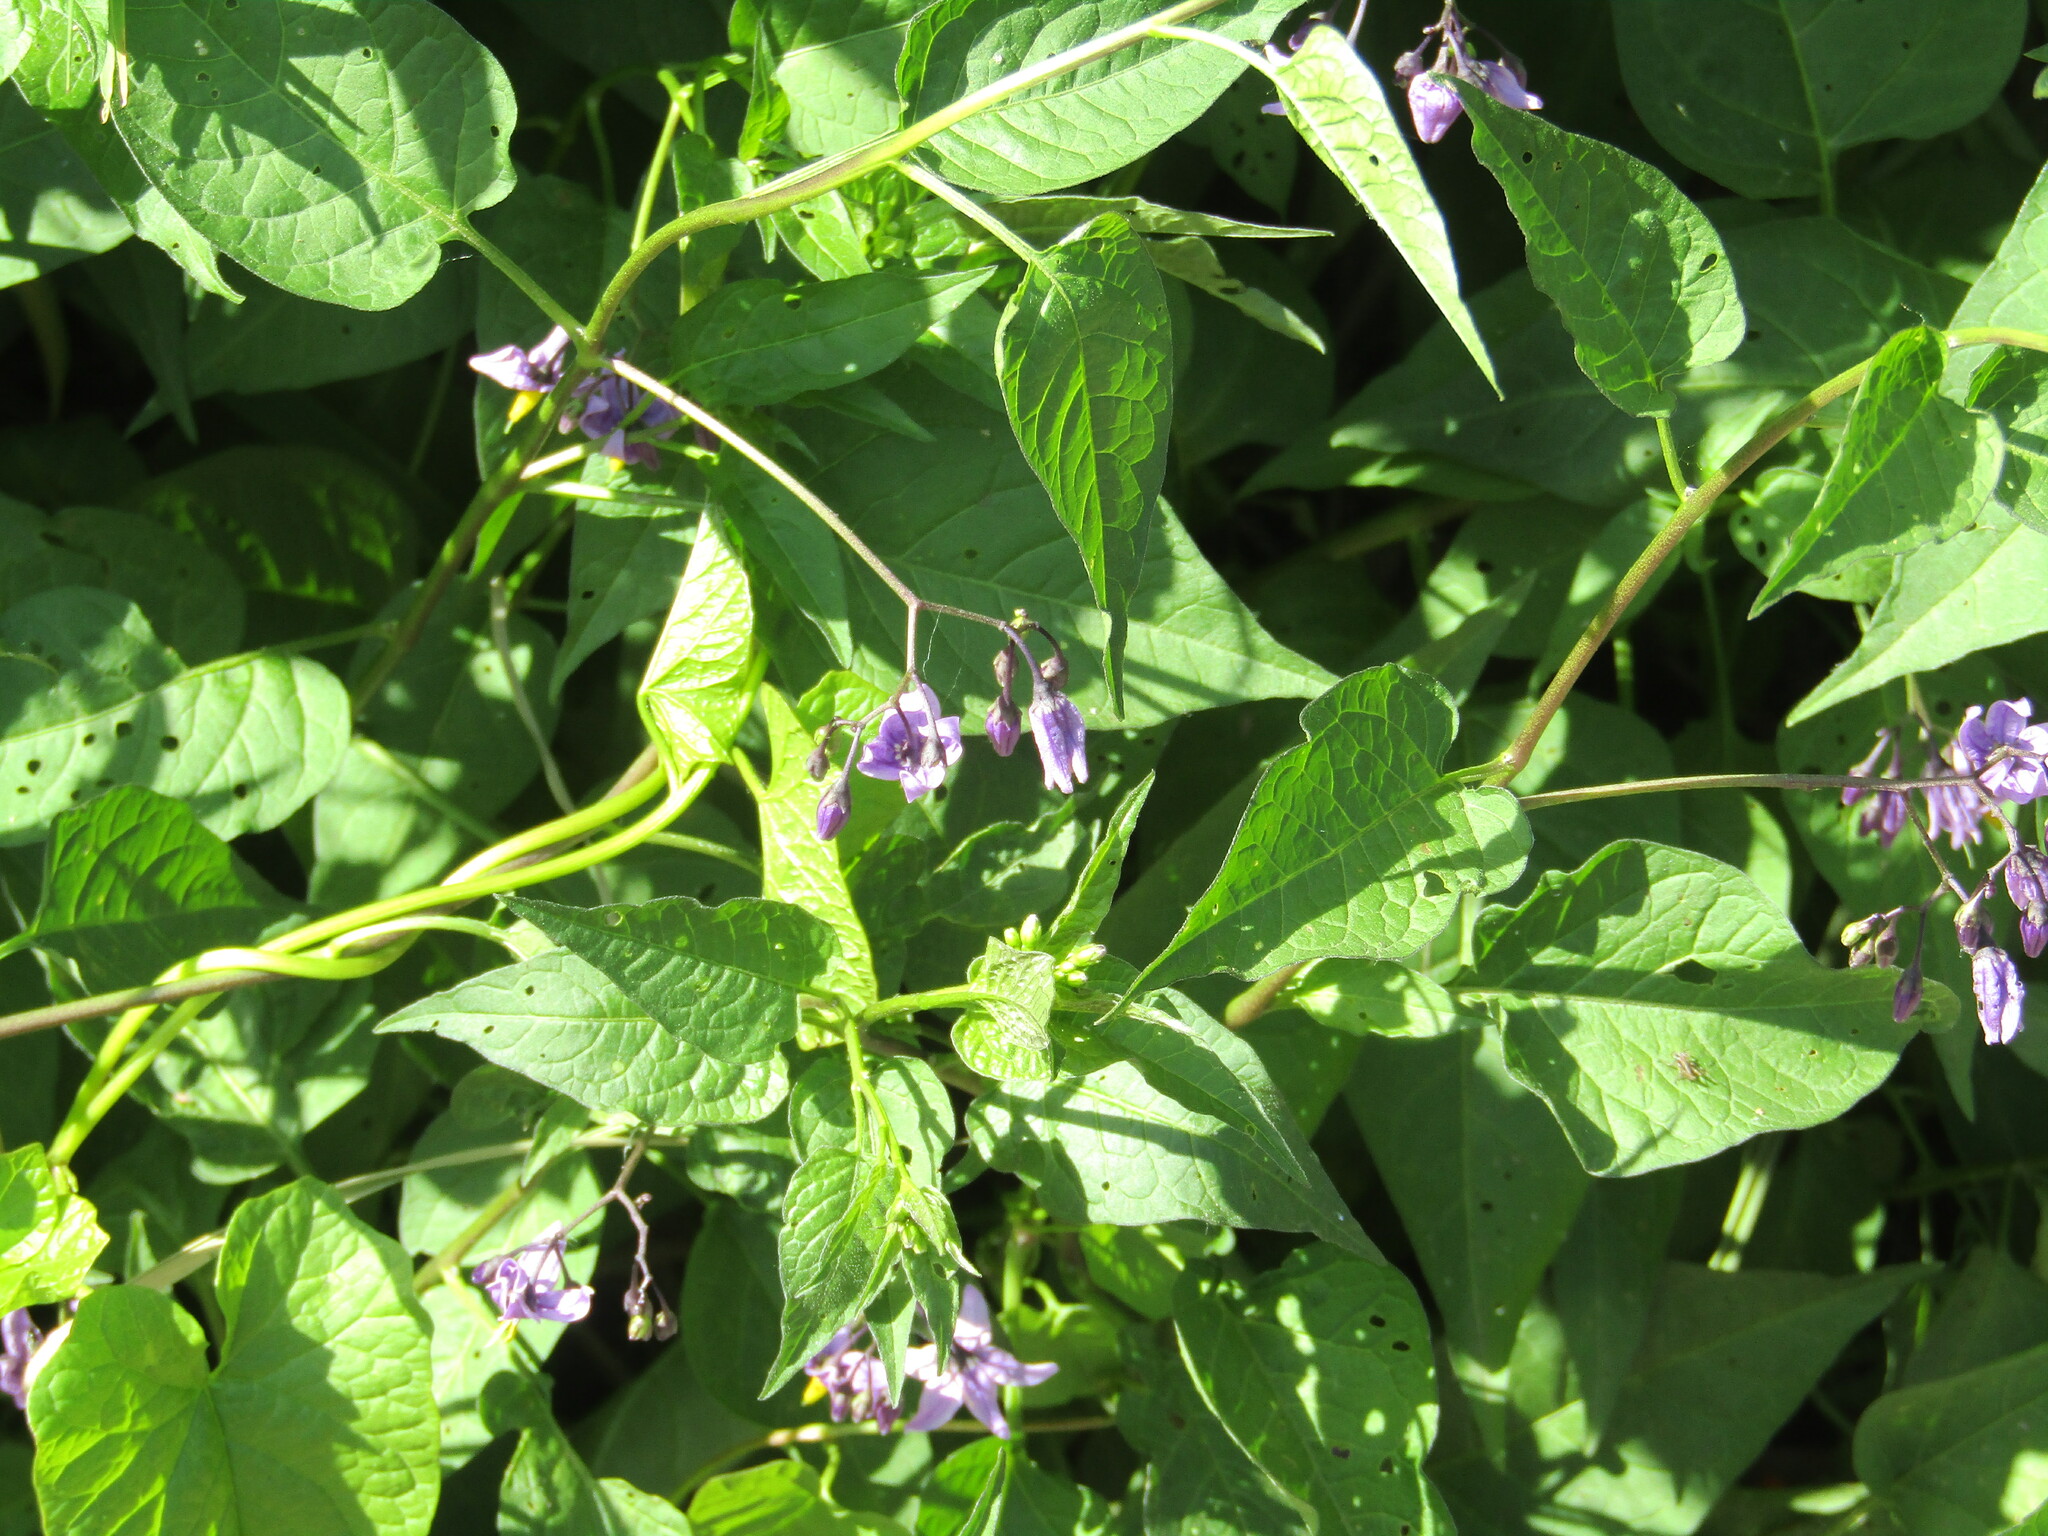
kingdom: Plantae
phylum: Tracheophyta
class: Magnoliopsida
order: Solanales
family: Solanaceae
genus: Solanum
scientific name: Solanum dulcamara
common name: Climbing nightshade
